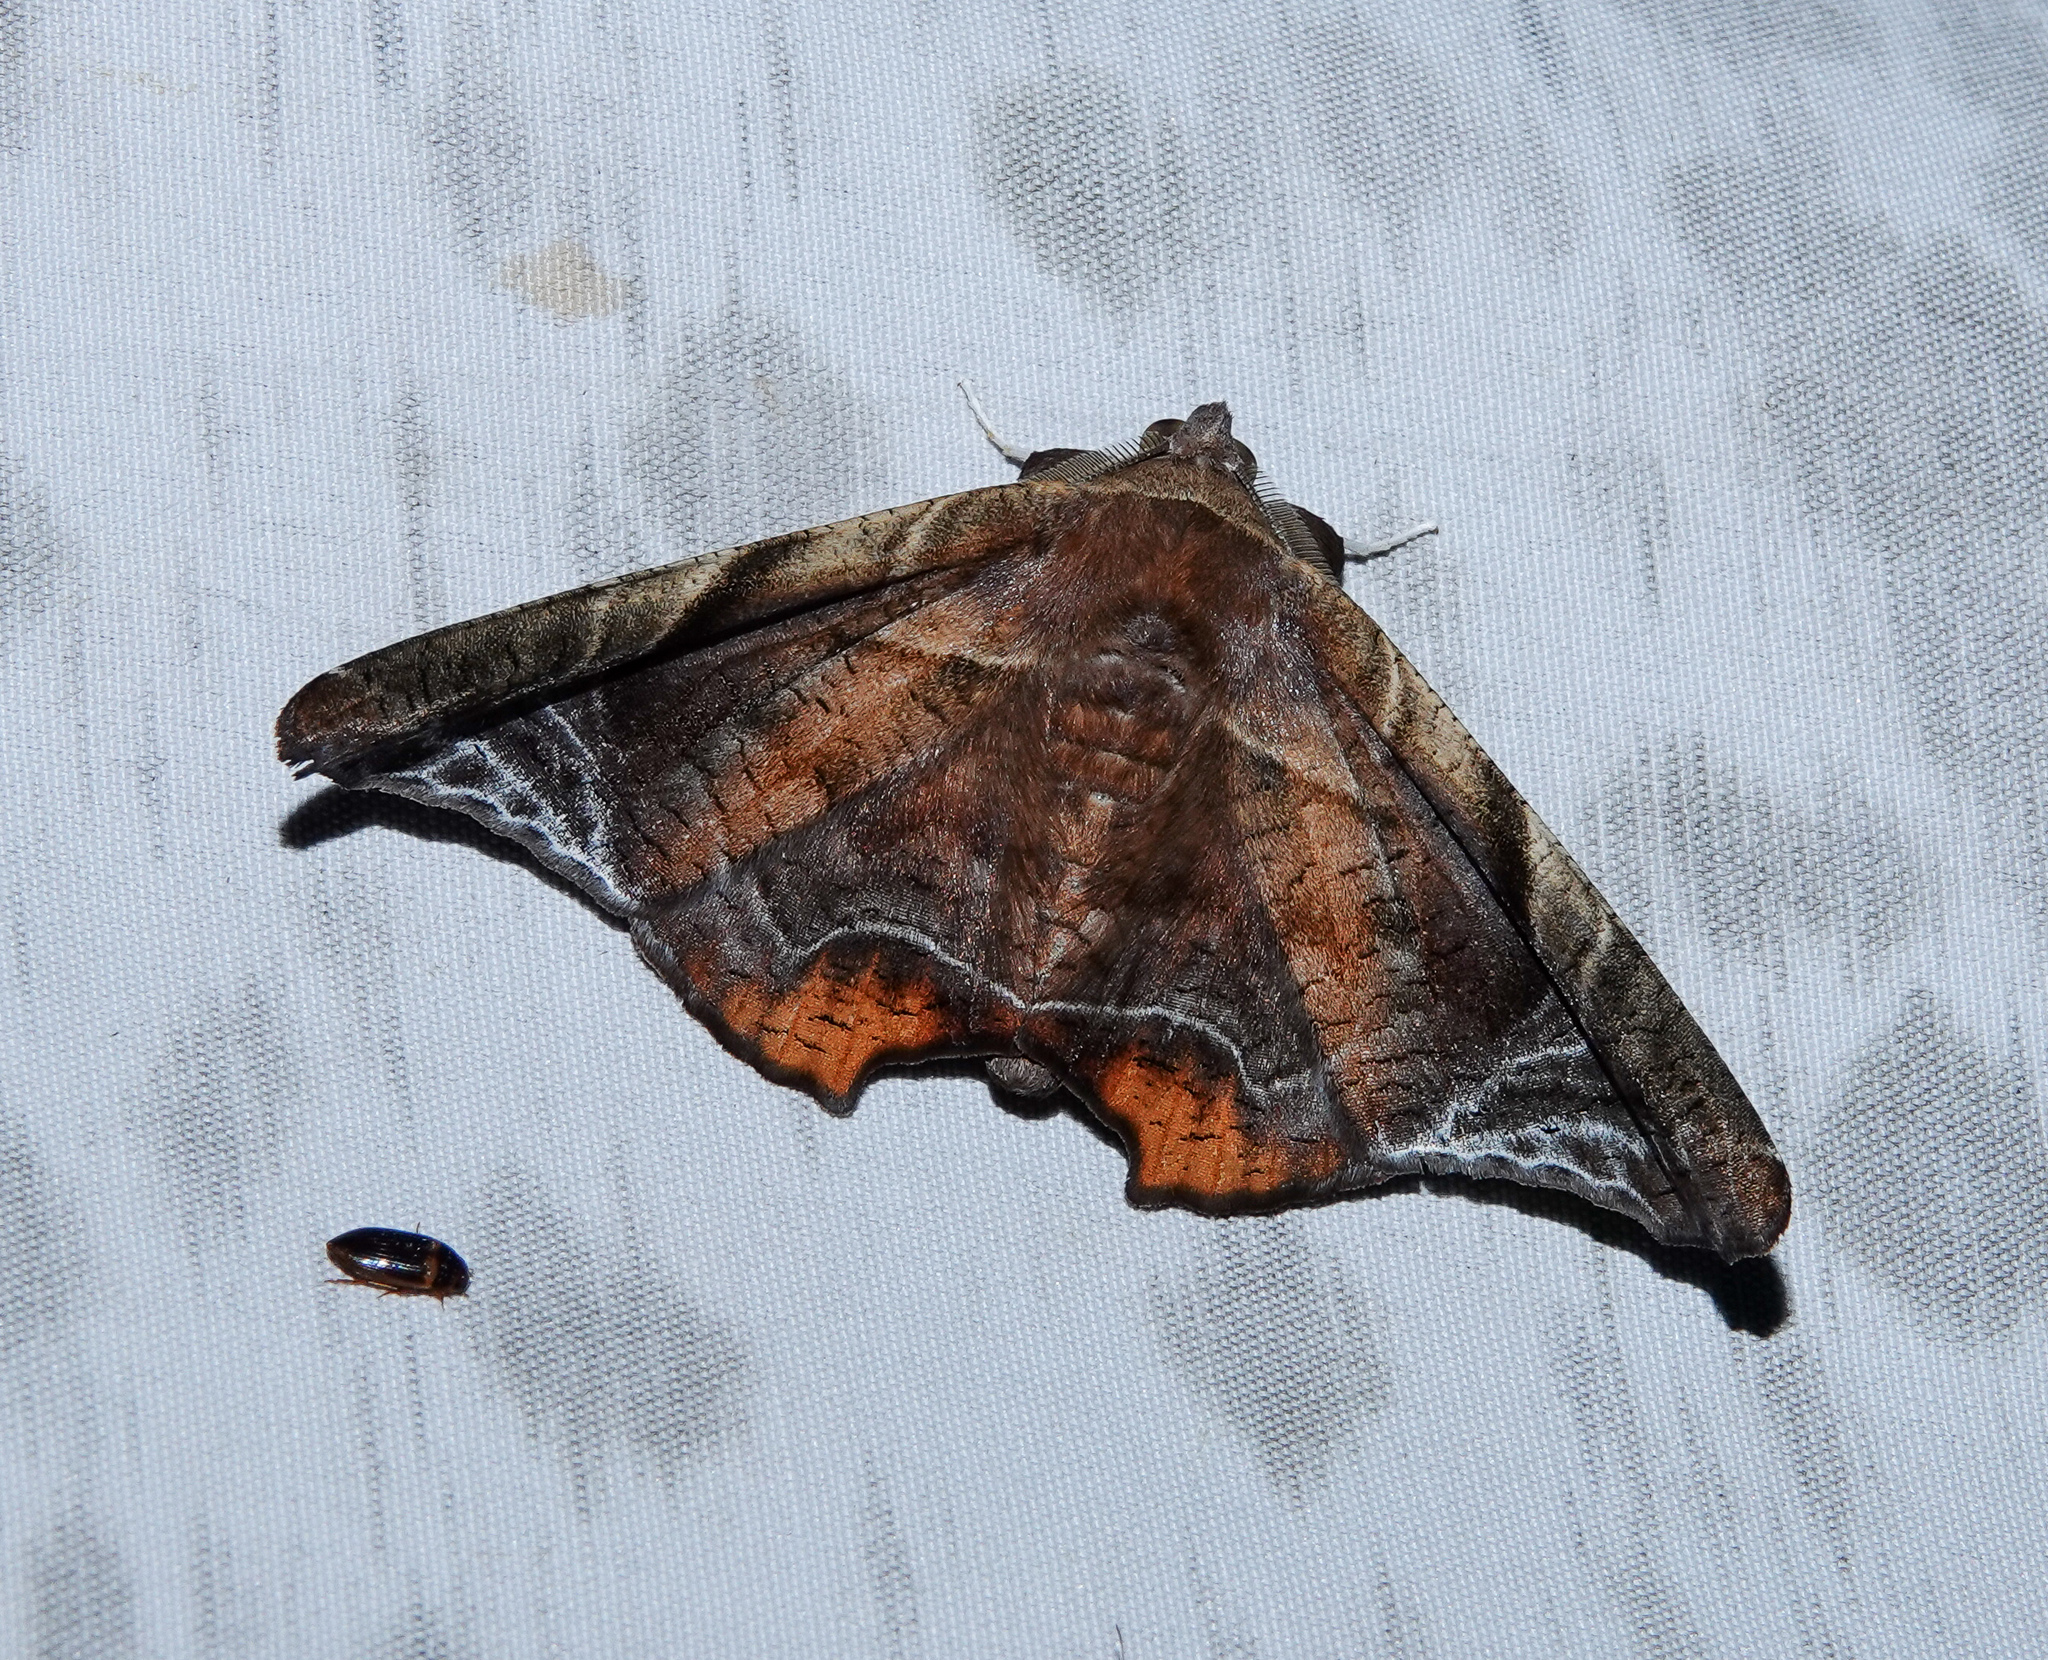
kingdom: Animalia
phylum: Arthropoda
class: Insecta
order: Lepidoptera
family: Erebidae
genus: Episparis
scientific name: Episparis tortuosalis
